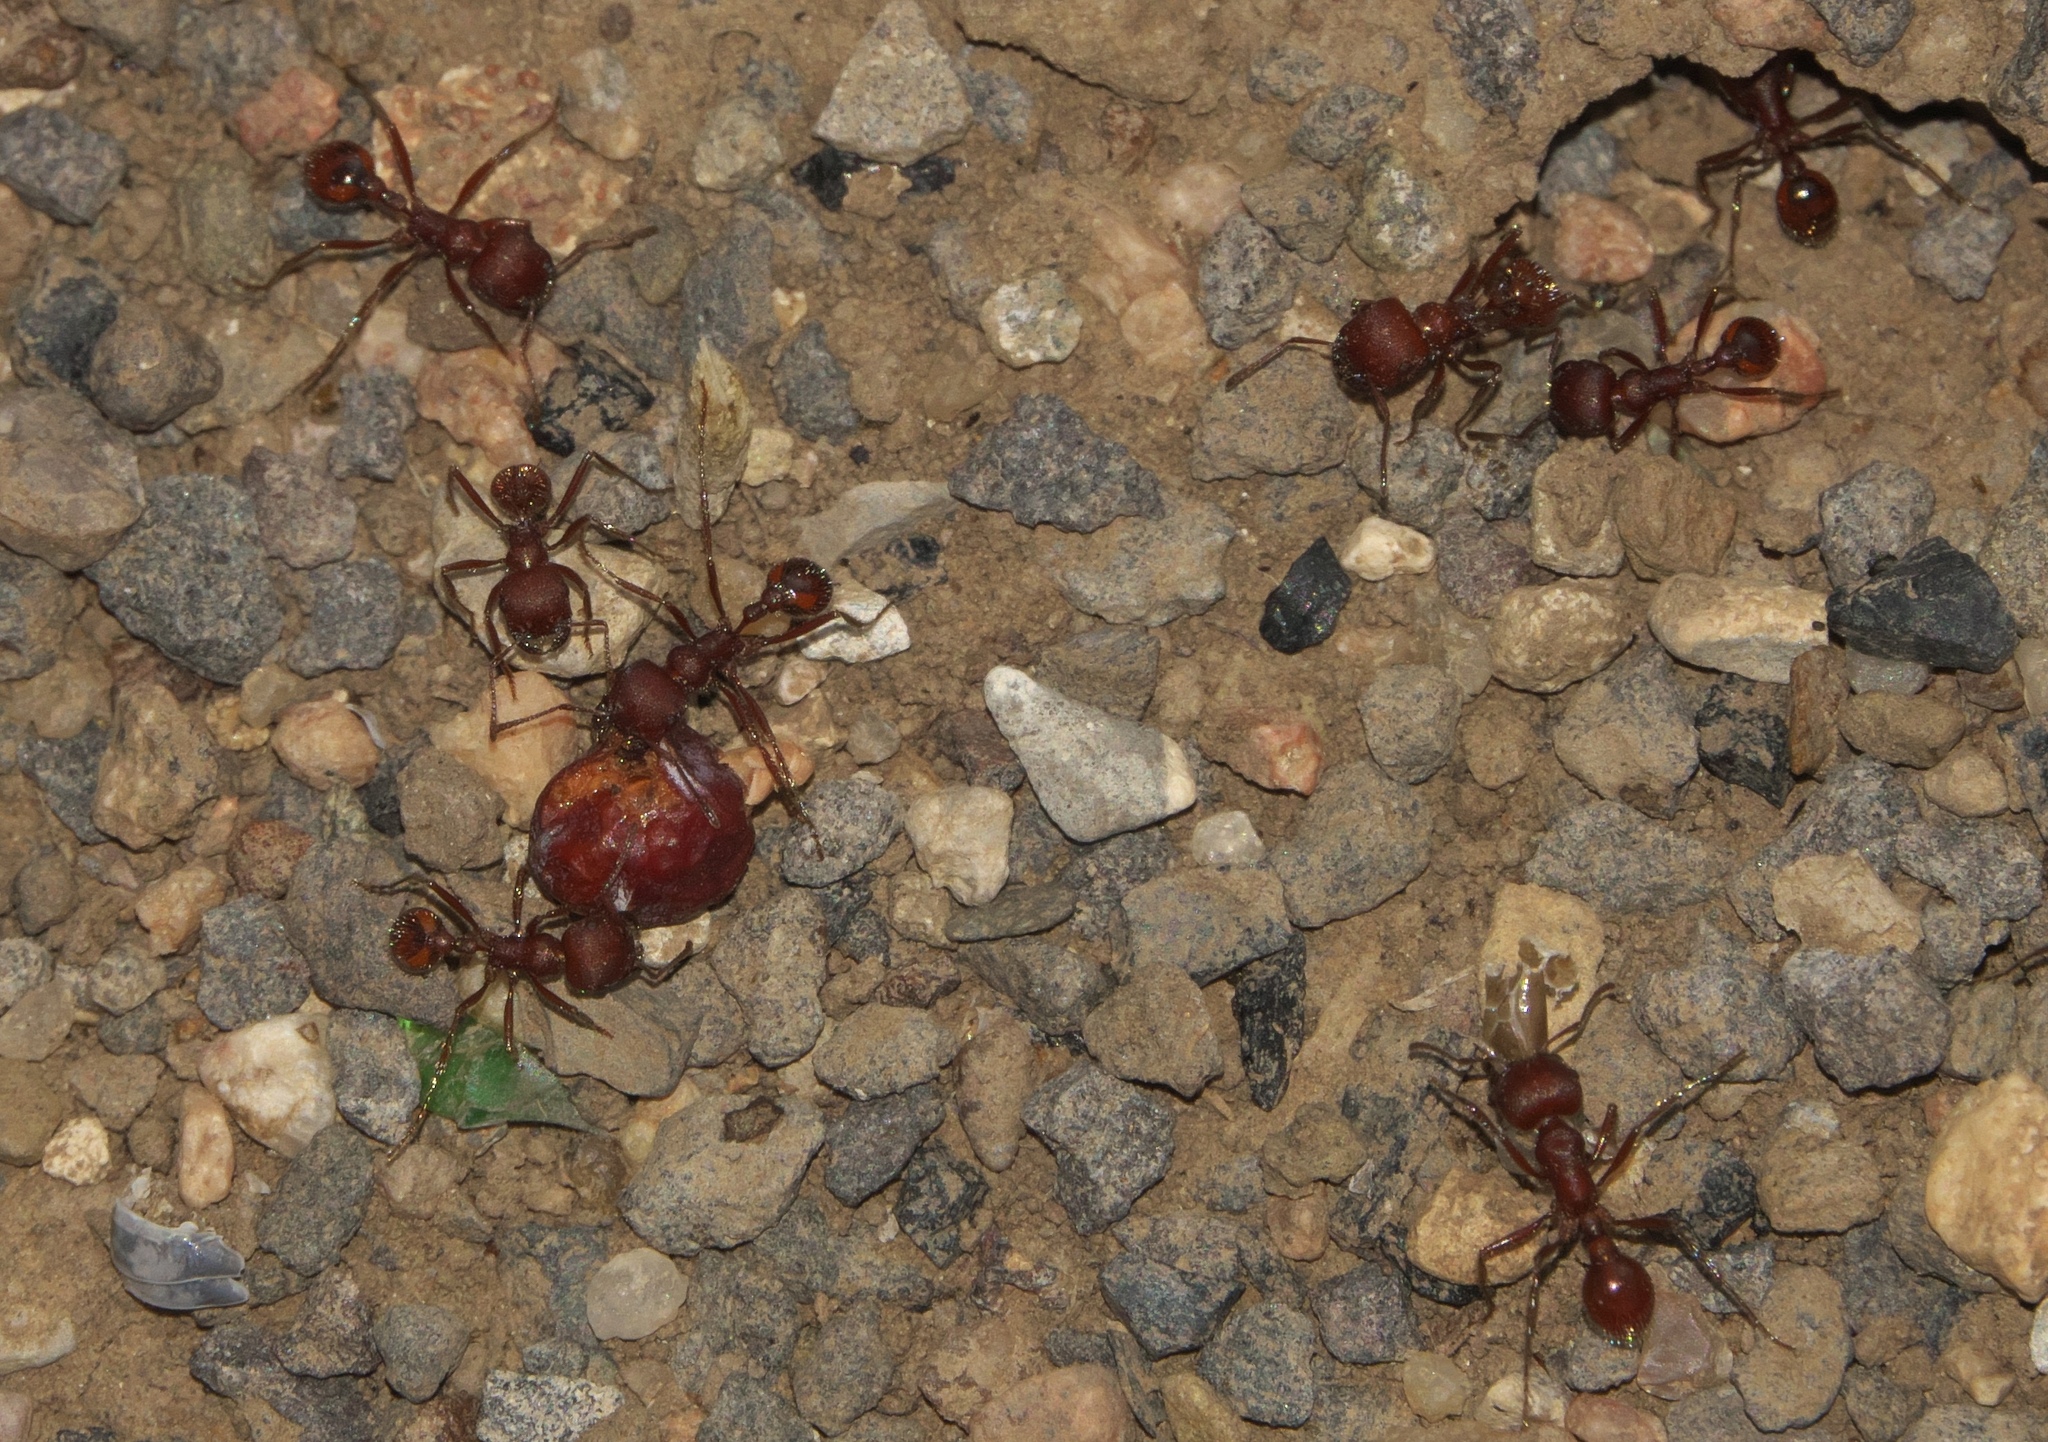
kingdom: Animalia
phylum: Arthropoda
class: Insecta
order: Hymenoptera
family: Formicidae
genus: Pogonomyrmex
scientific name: Pogonomyrmex occidentalis
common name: Western harvester ant
